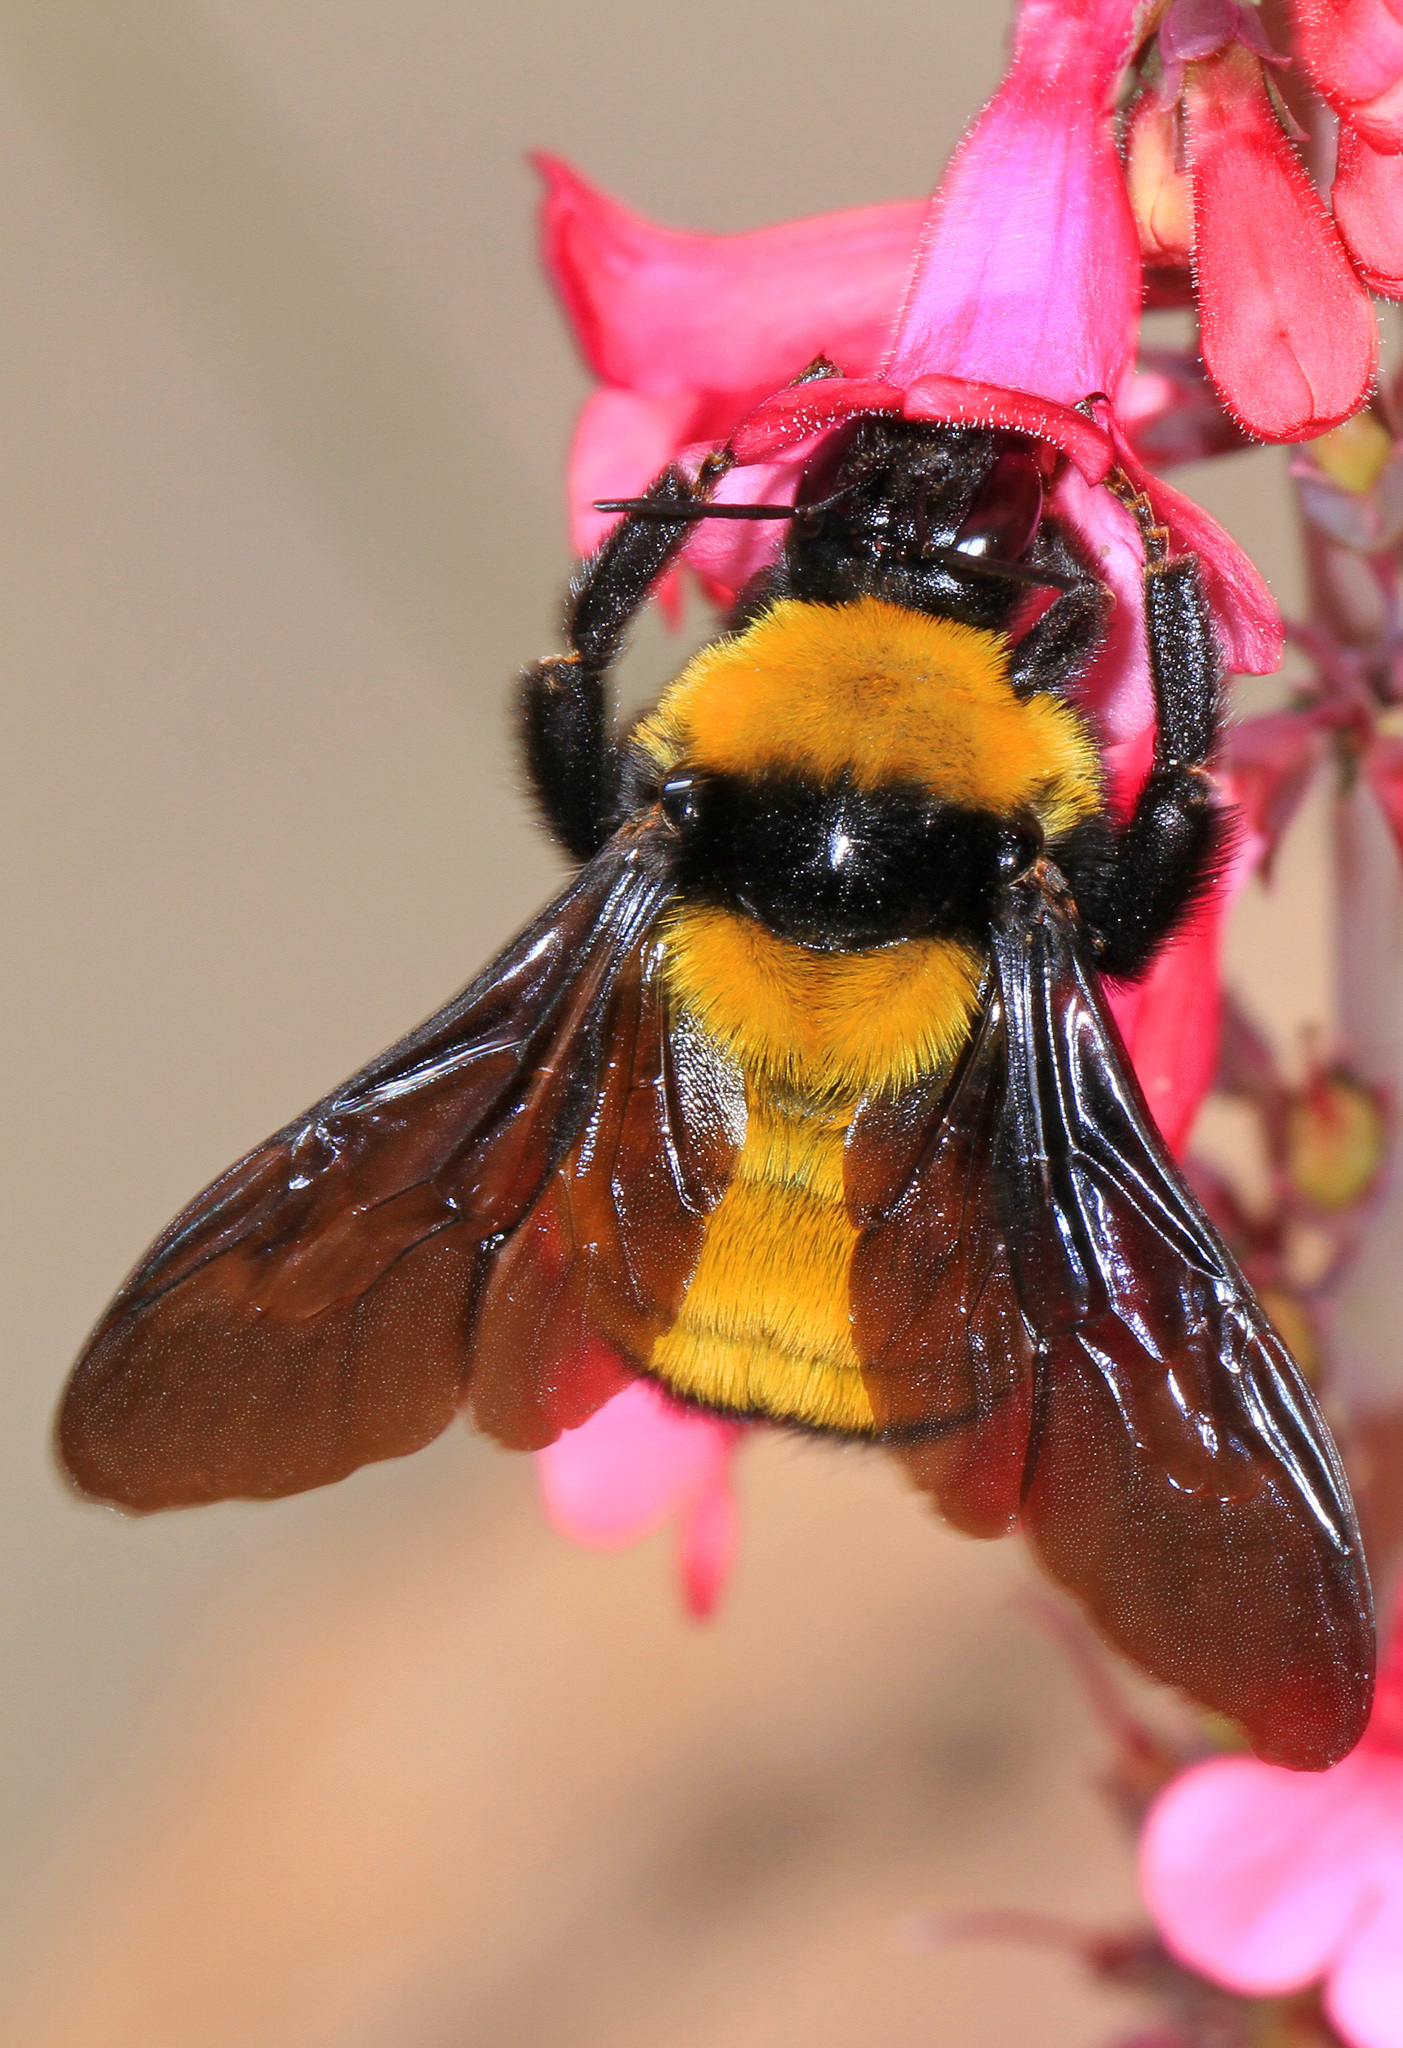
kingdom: Animalia
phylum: Arthropoda
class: Insecta
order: Hymenoptera
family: Apidae
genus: Bombus
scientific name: Bombus sonorus
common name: Sonoran bumble bee
